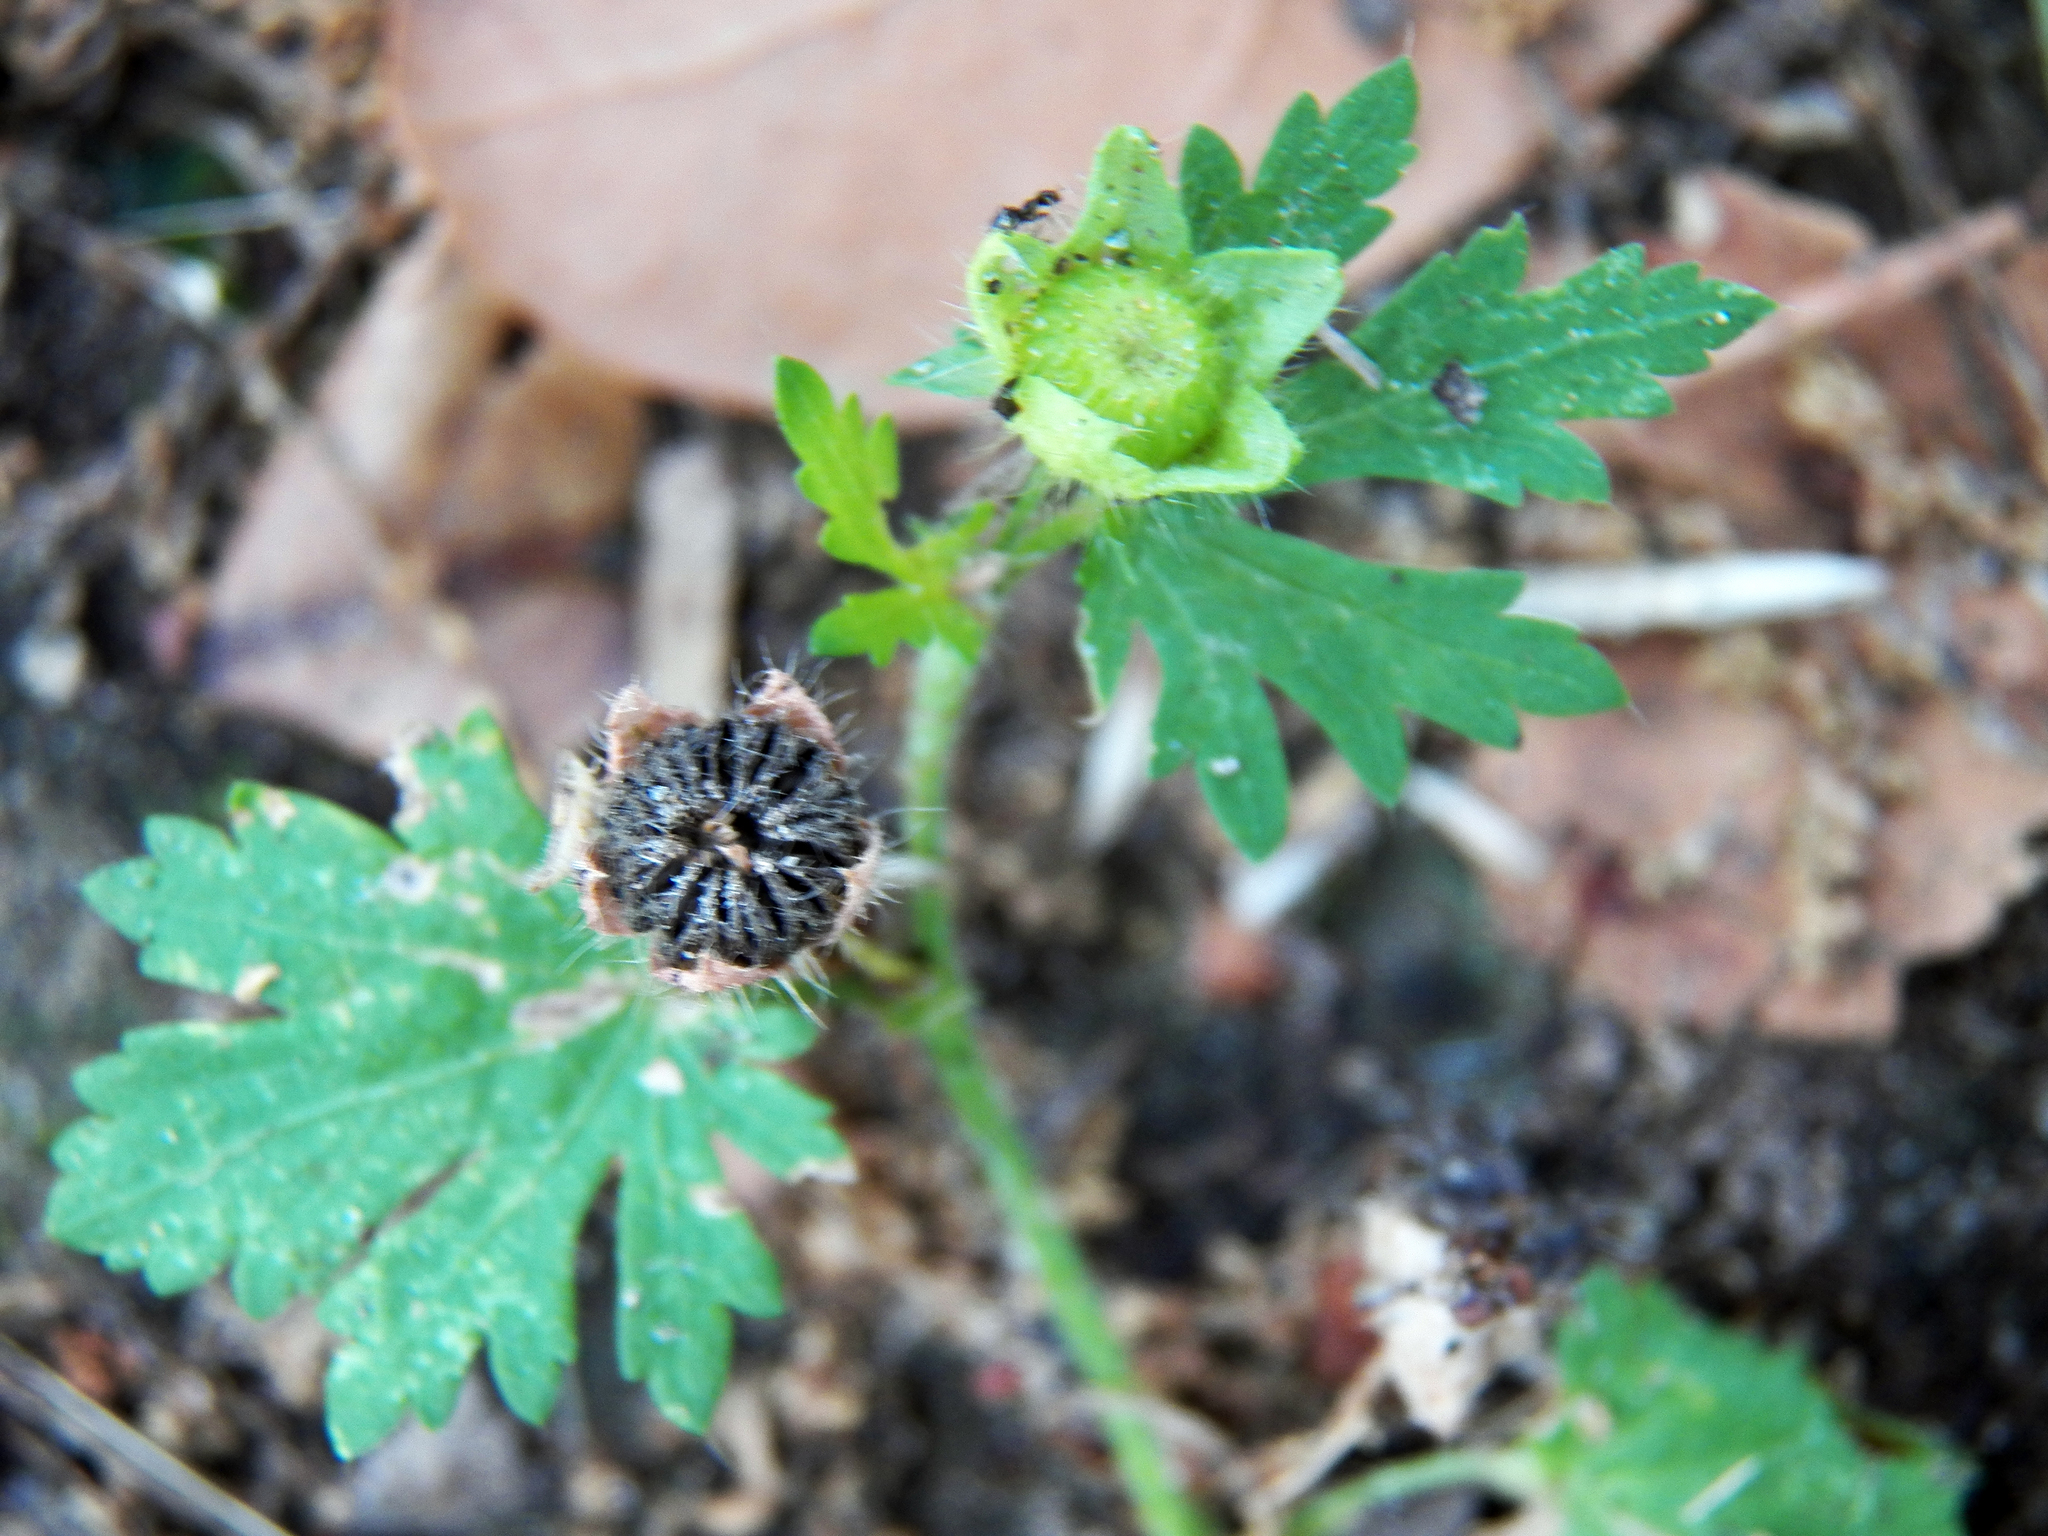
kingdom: Plantae
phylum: Tracheophyta
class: Magnoliopsida
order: Malvales
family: Malvaceae
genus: Modiola
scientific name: Modiola caroliniana
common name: Carolina bristlemallow
